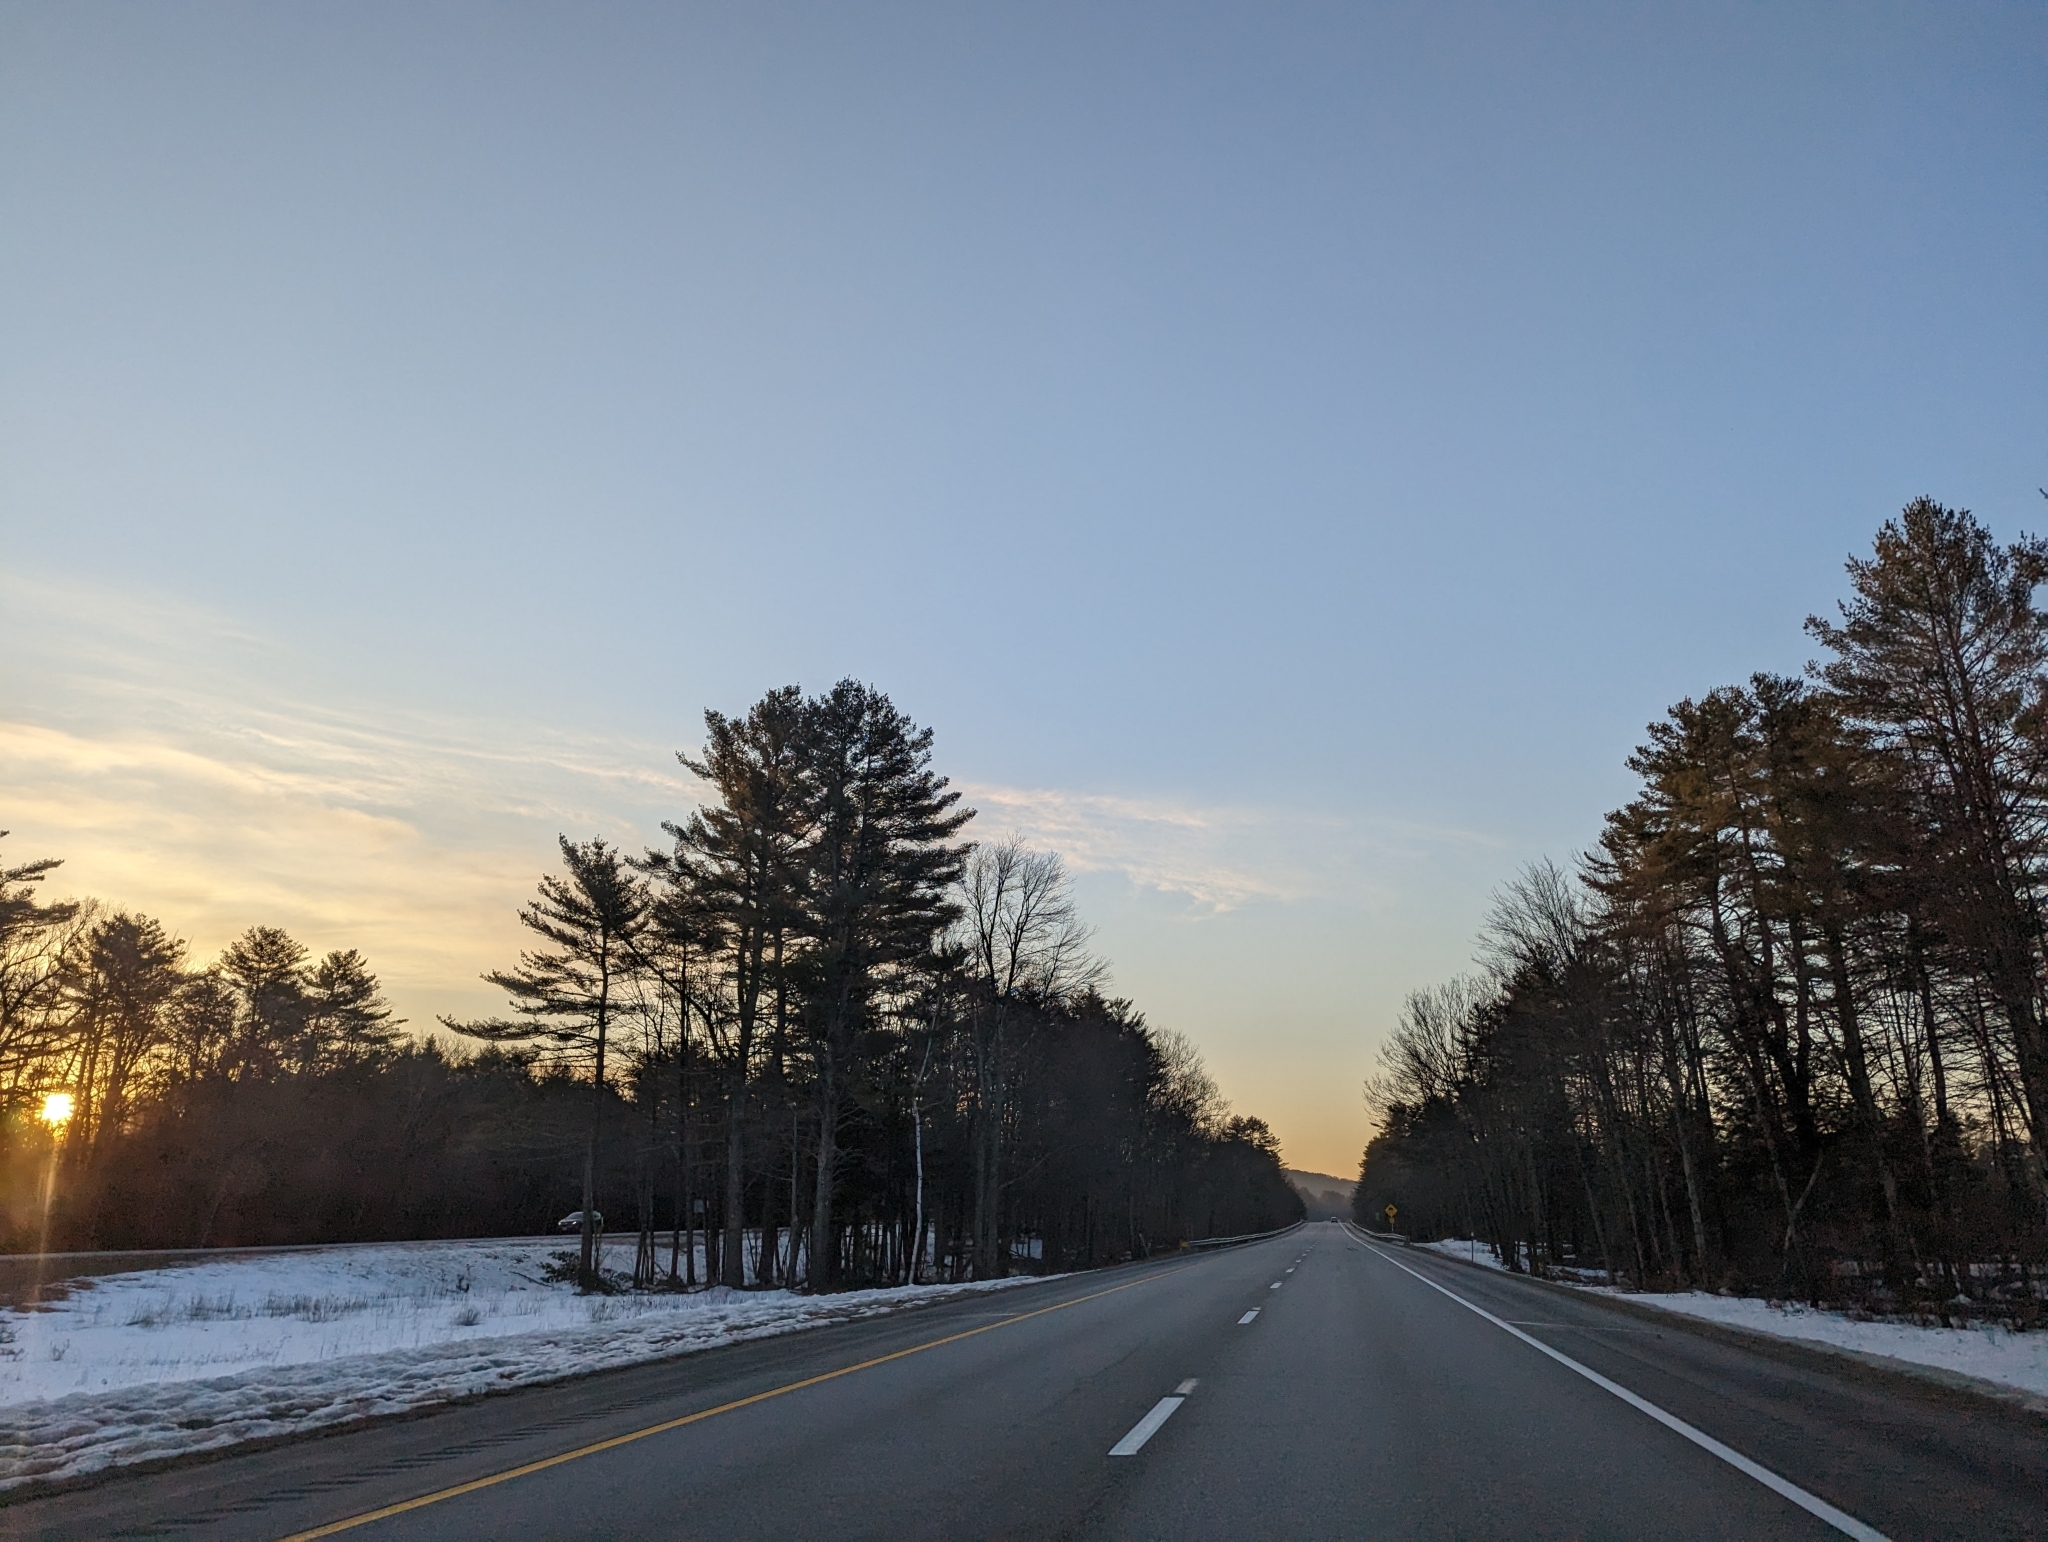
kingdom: Plantae
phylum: Tracheophyta
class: Pinopsida
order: Pinales
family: Pinaceae
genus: Pinus
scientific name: Pinus strobus
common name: Weymouth pine
